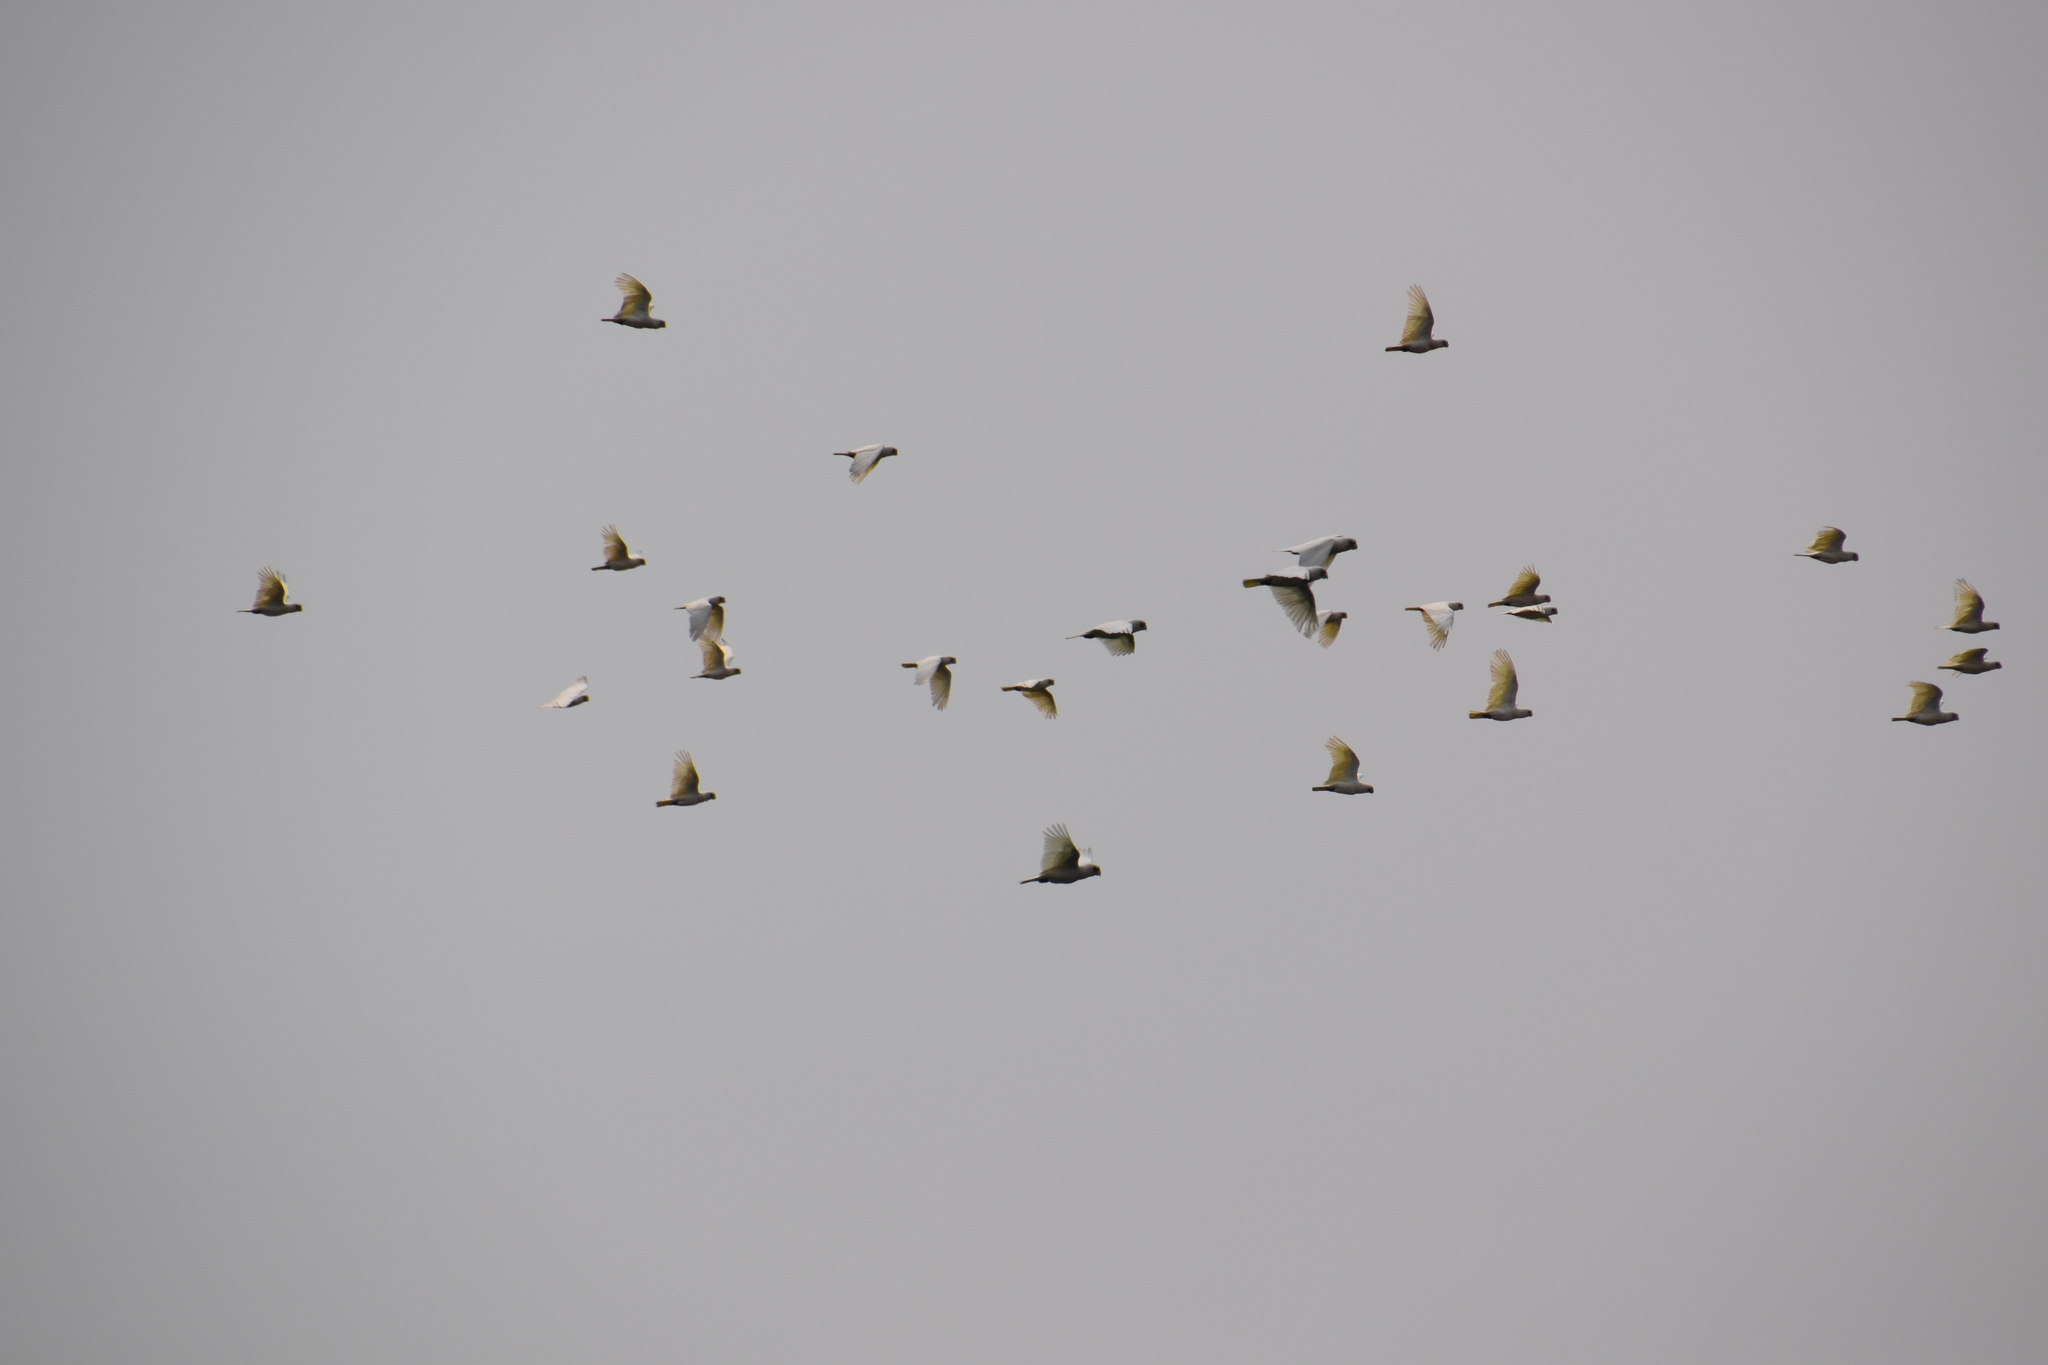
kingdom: Animalia
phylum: Chordata
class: Aves
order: Psittaciformes
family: Psittacidae
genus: Cacatua
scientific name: Cacatua sanguinea
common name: Little corella
